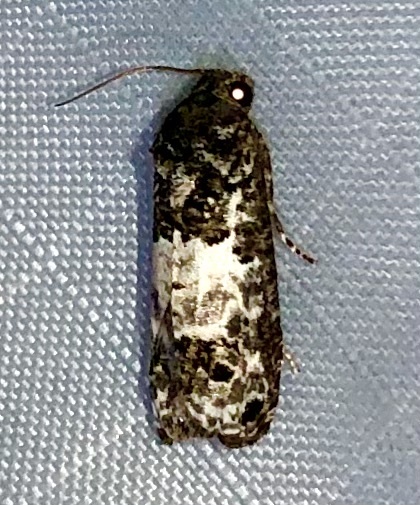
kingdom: Animalia
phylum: Arthropoda
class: Insecta
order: Lepidoptera
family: Tortricidae
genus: Epiblema
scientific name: Epiblema carolinana
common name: Gray-blotched epiblema moth
